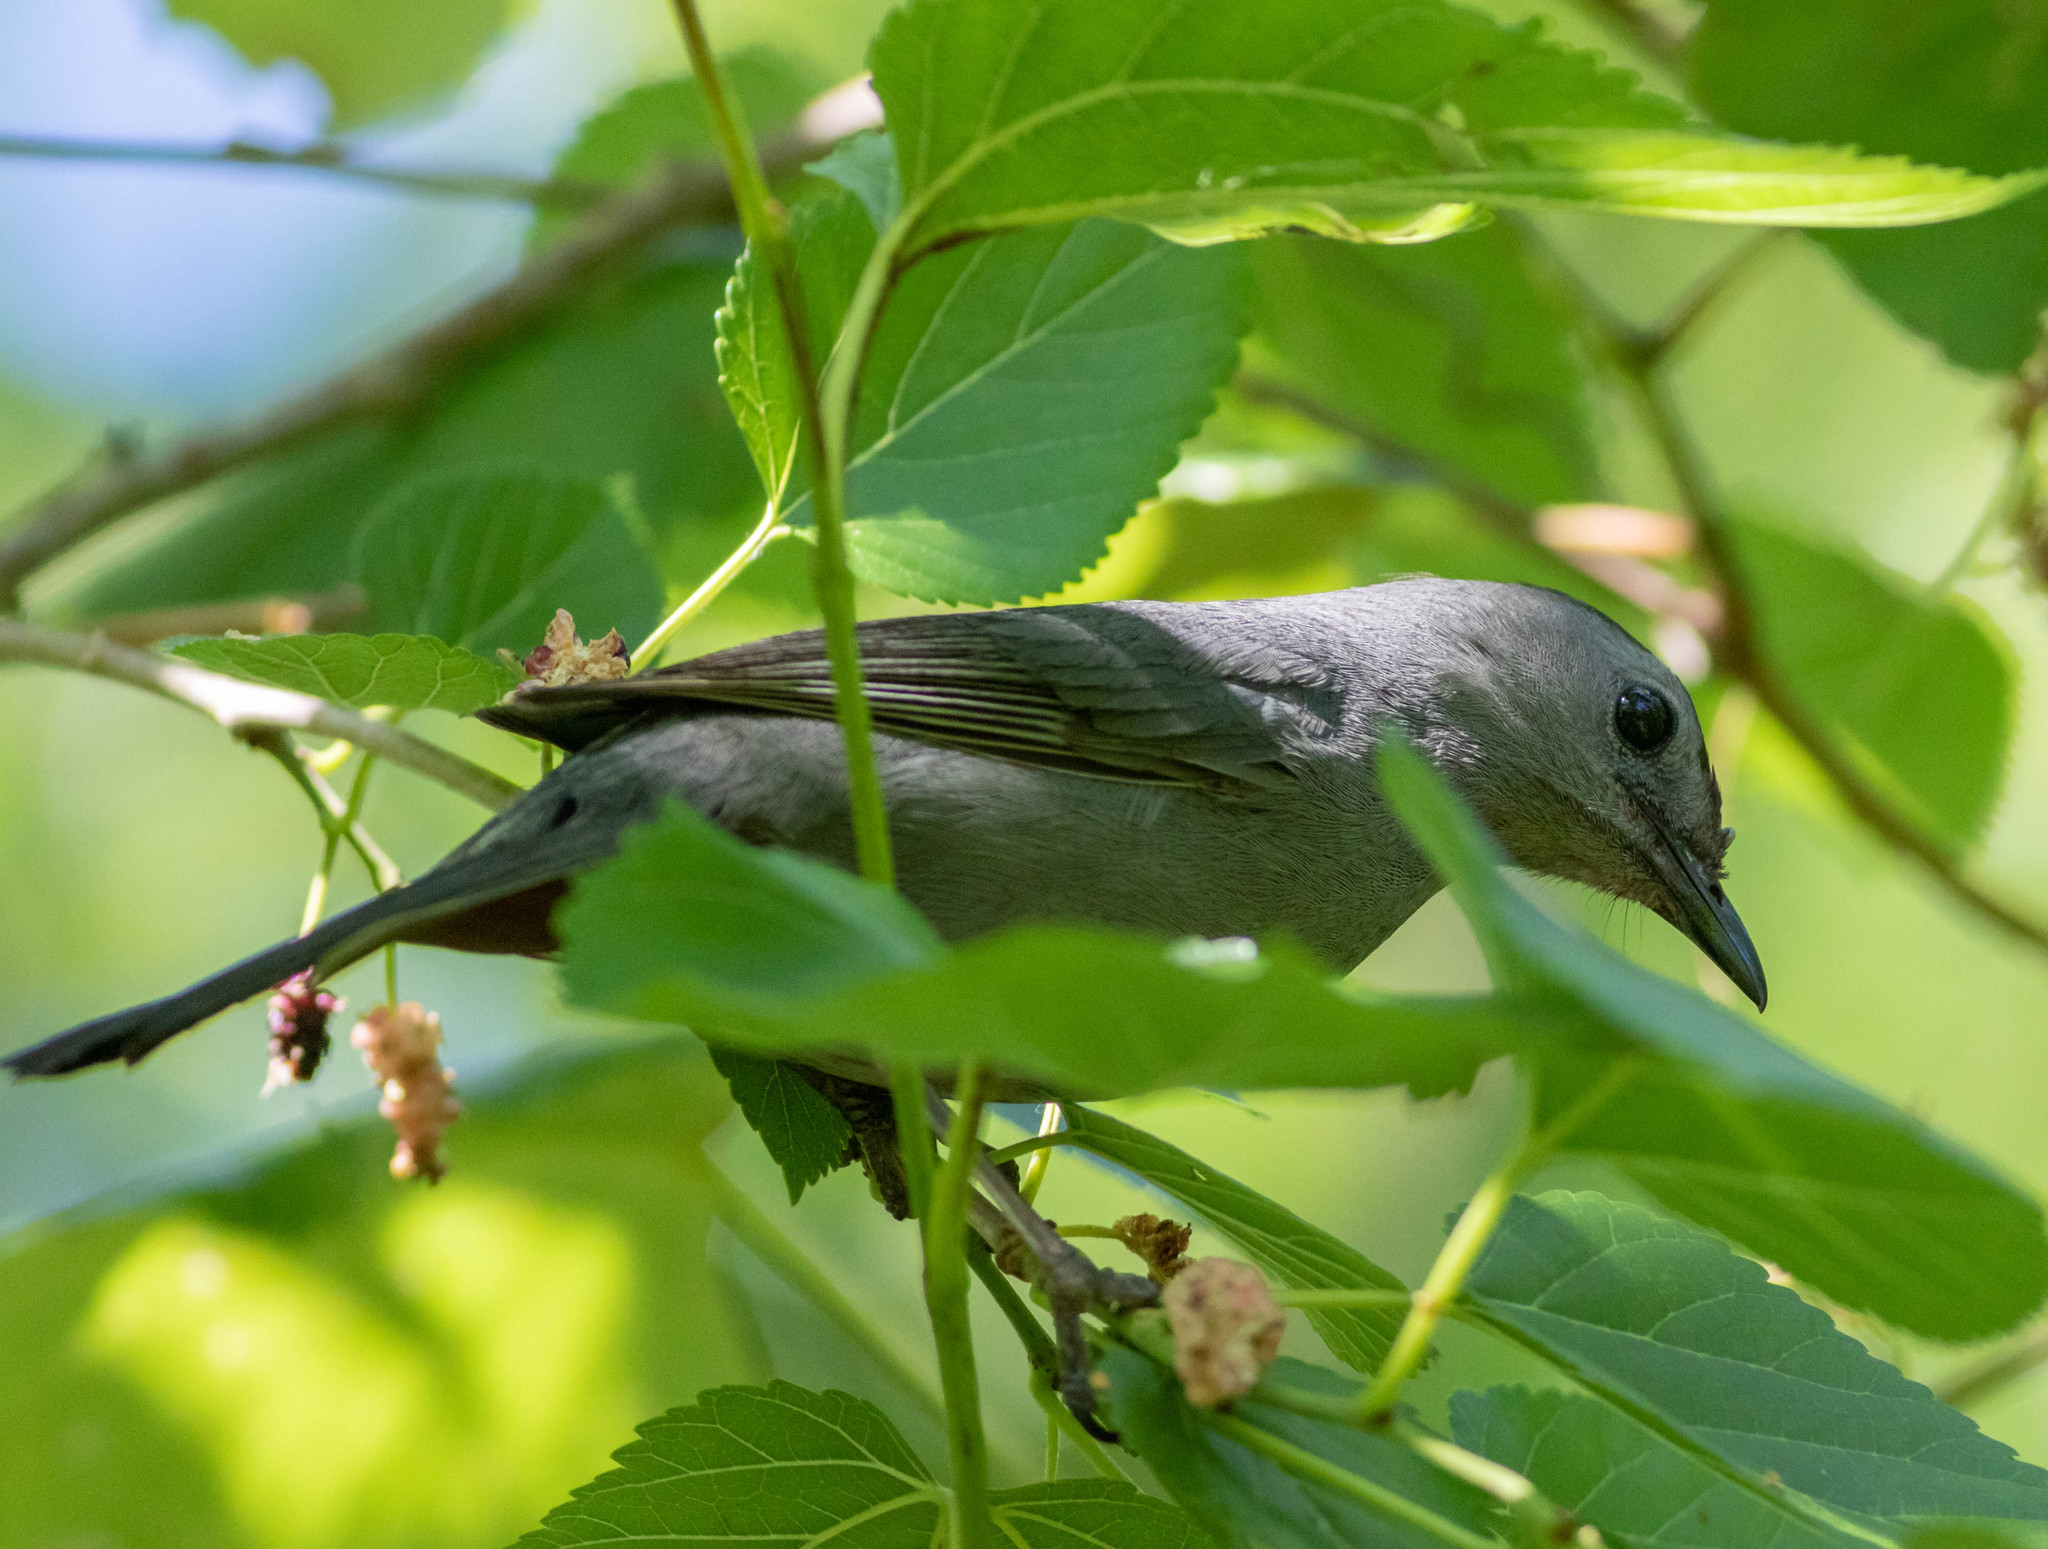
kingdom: Animalia
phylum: Chordata
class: Aves
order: Passeriformes
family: Mimidae
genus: Dumetella
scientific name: Dumetella carolinensis
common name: Gray catbird
